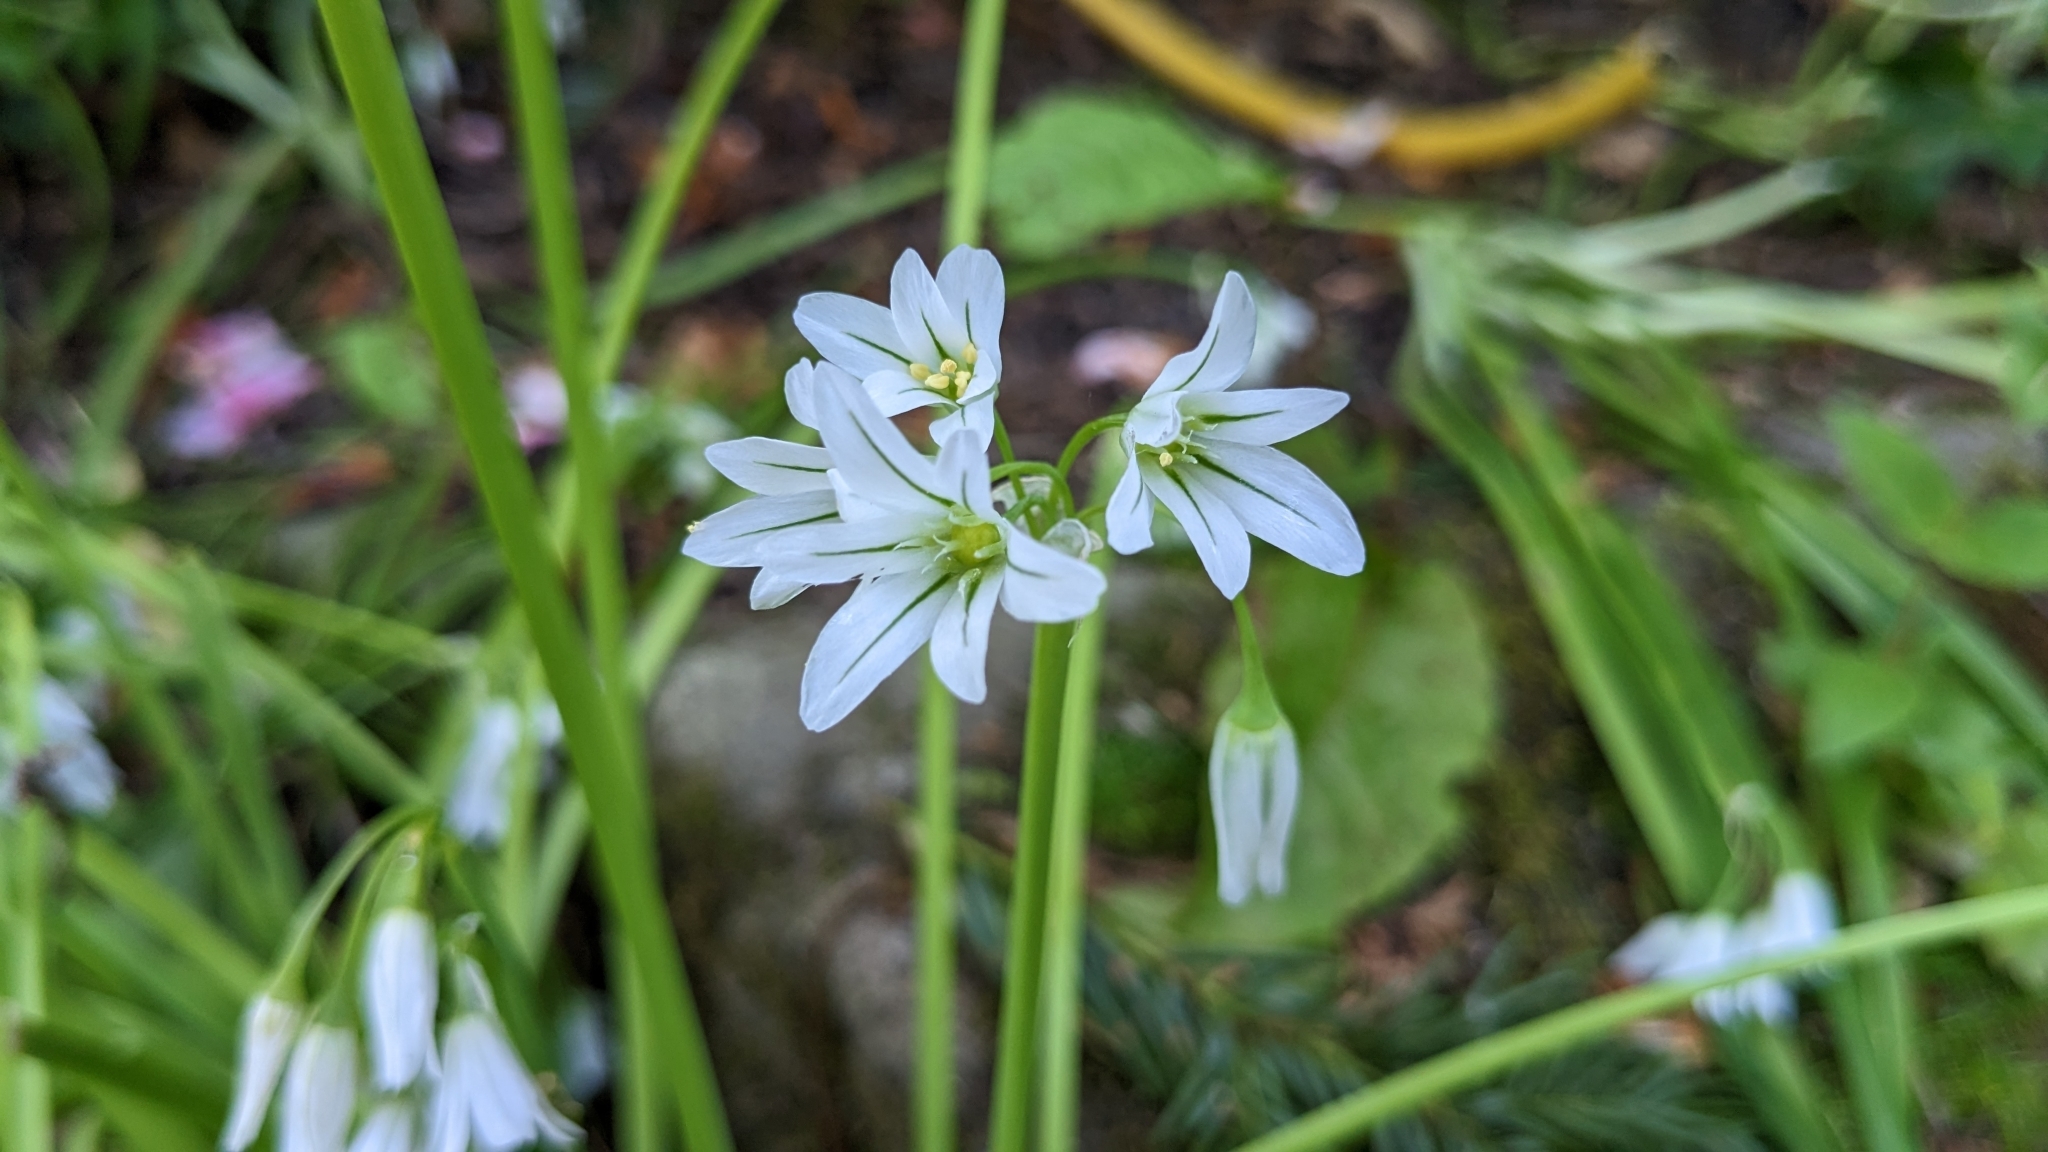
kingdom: Plantae
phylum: Tracheophyta
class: Liliopsida
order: Asparagales
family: Amaryllidaceae
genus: Allium
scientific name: Allium triquetrum
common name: Three-cornered garlic
